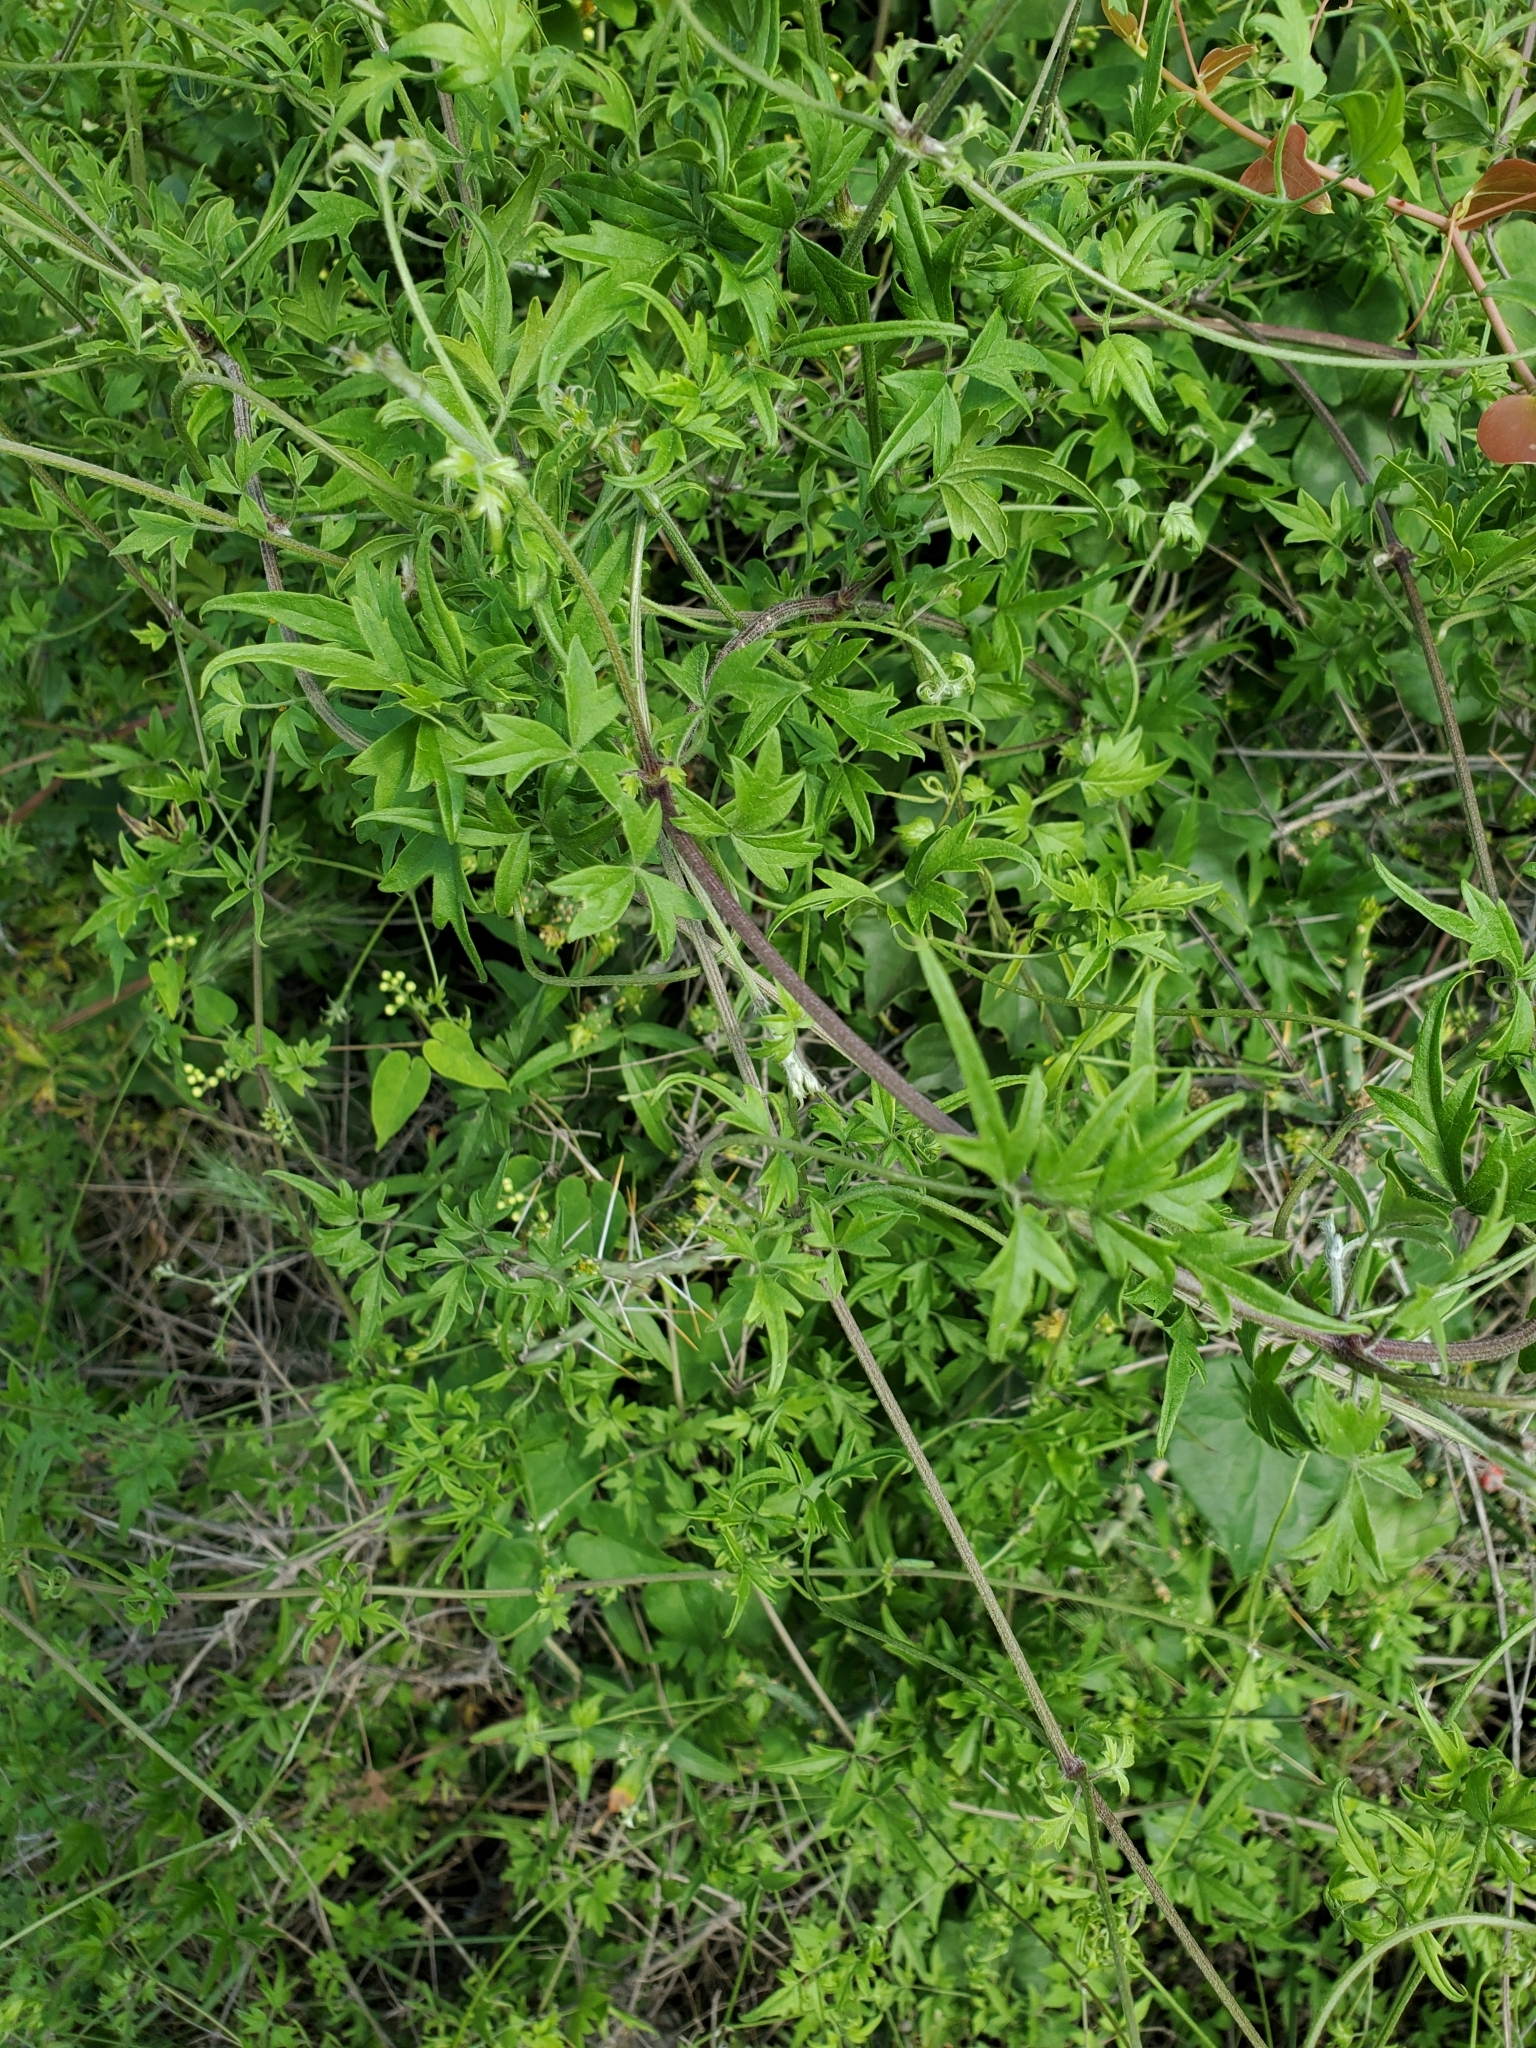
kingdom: Plantae
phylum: Tracheophyta
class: Magnoliopsida
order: Ranunculales
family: Ranunculaceae
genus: Clematis
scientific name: Clematis drummondii
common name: Texas virgin's bower
